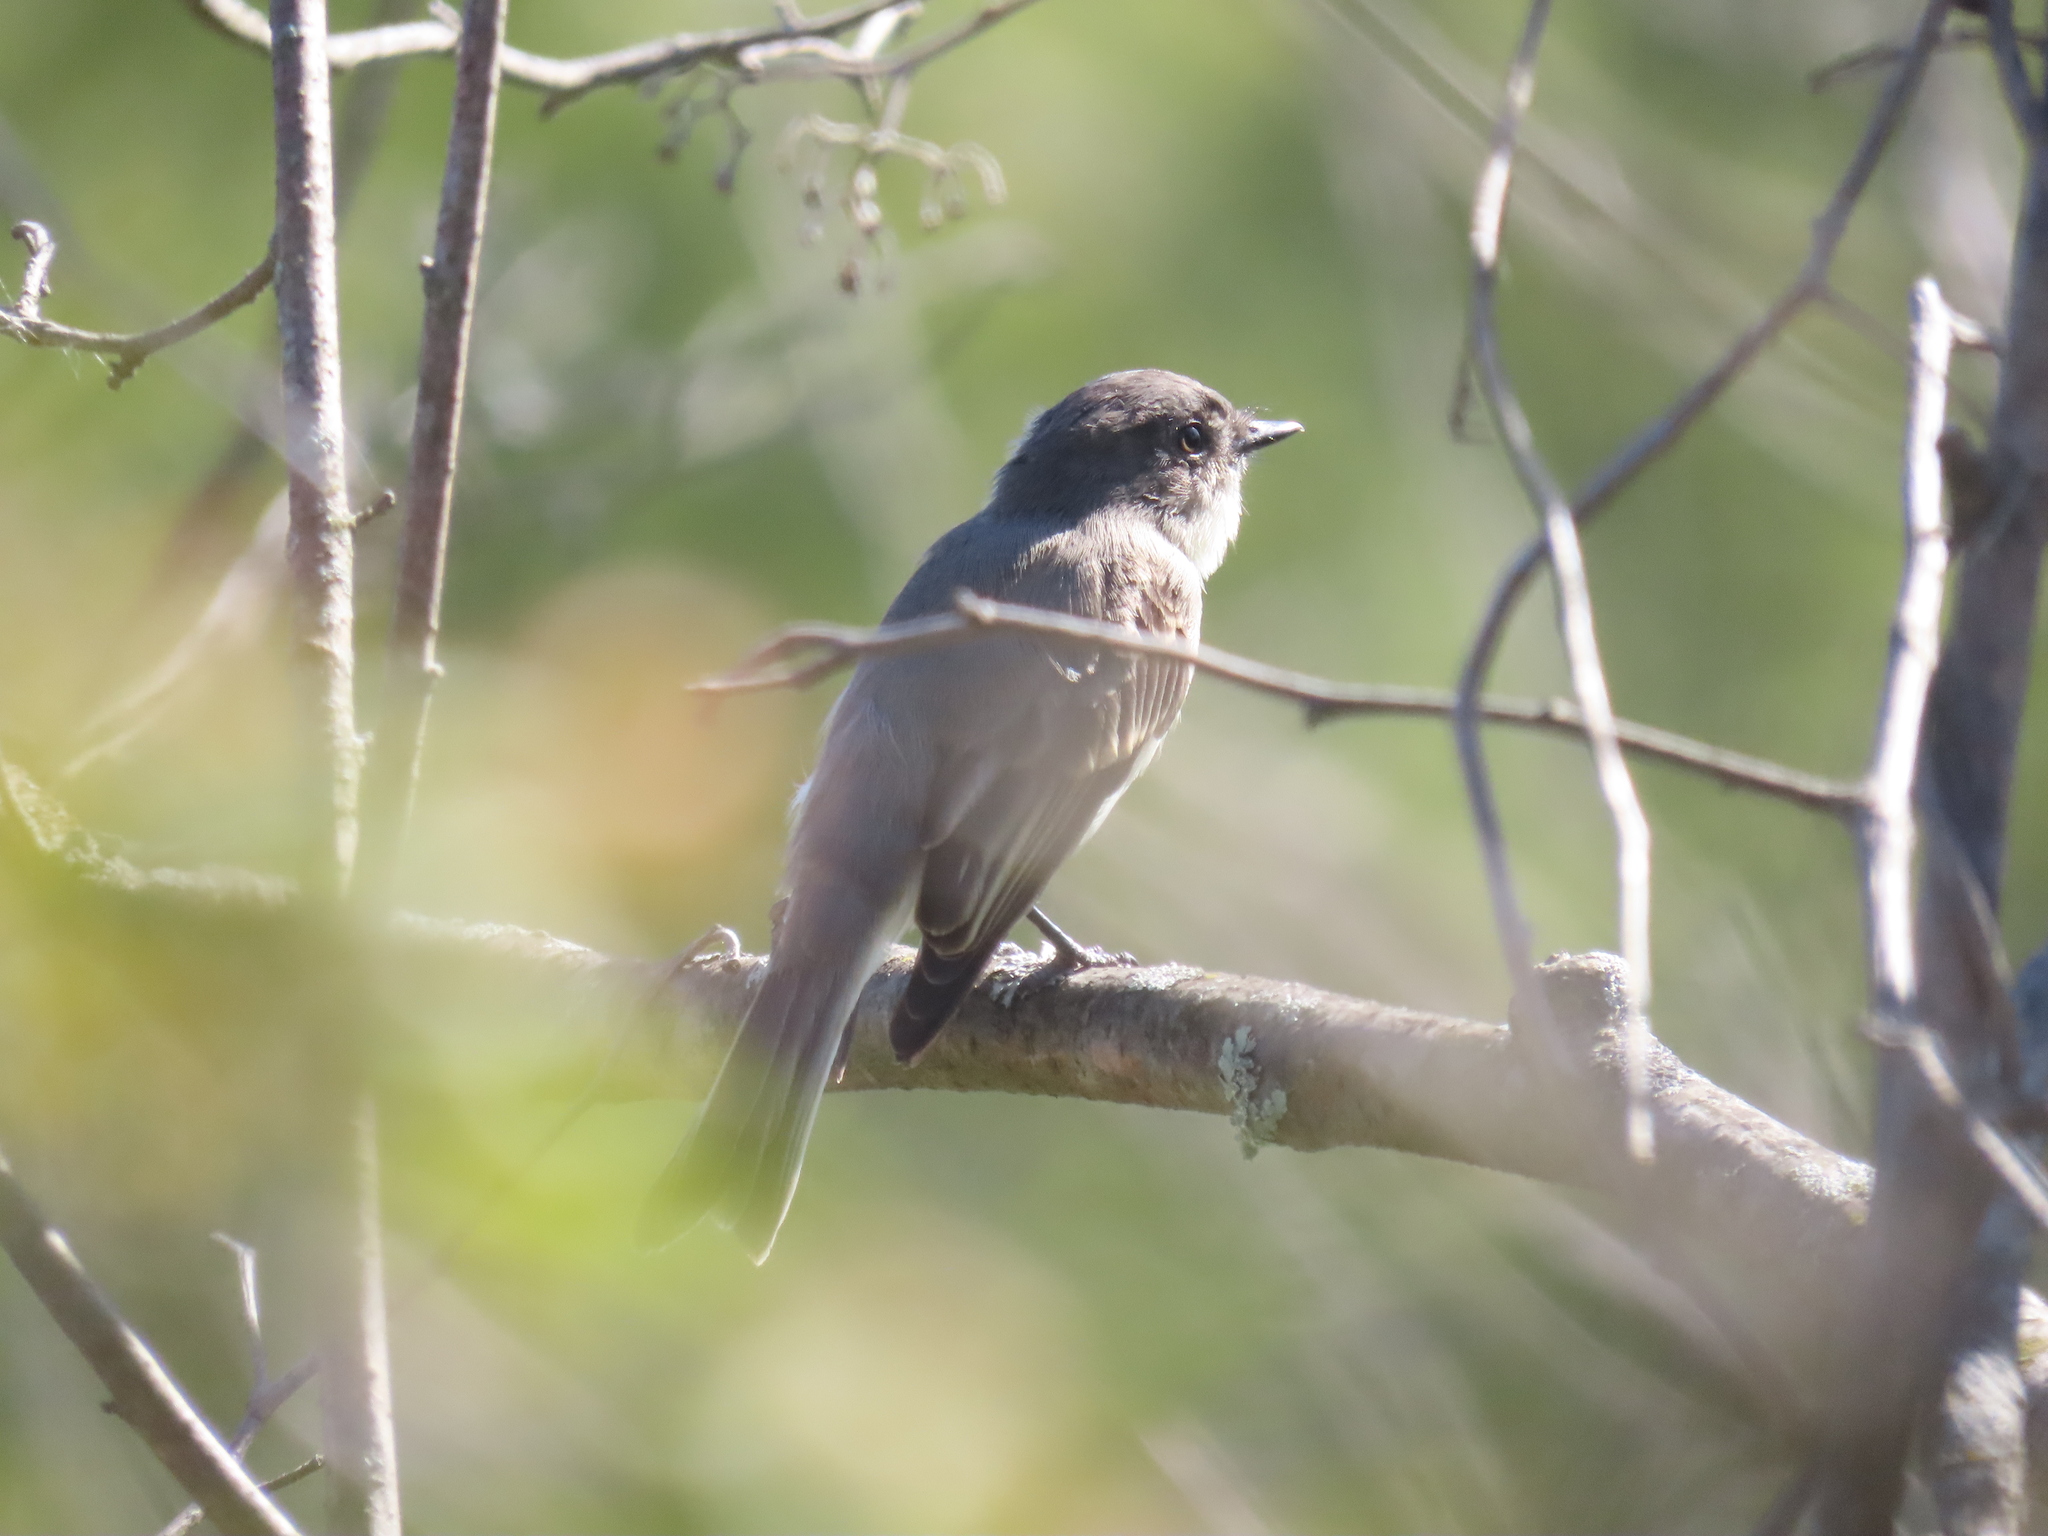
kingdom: Animalia
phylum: Chordata
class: Aves
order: Passeriformes
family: Tyrannidae
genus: Sayornis
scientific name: Sayornis phoebe
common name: Eastern phoebe
